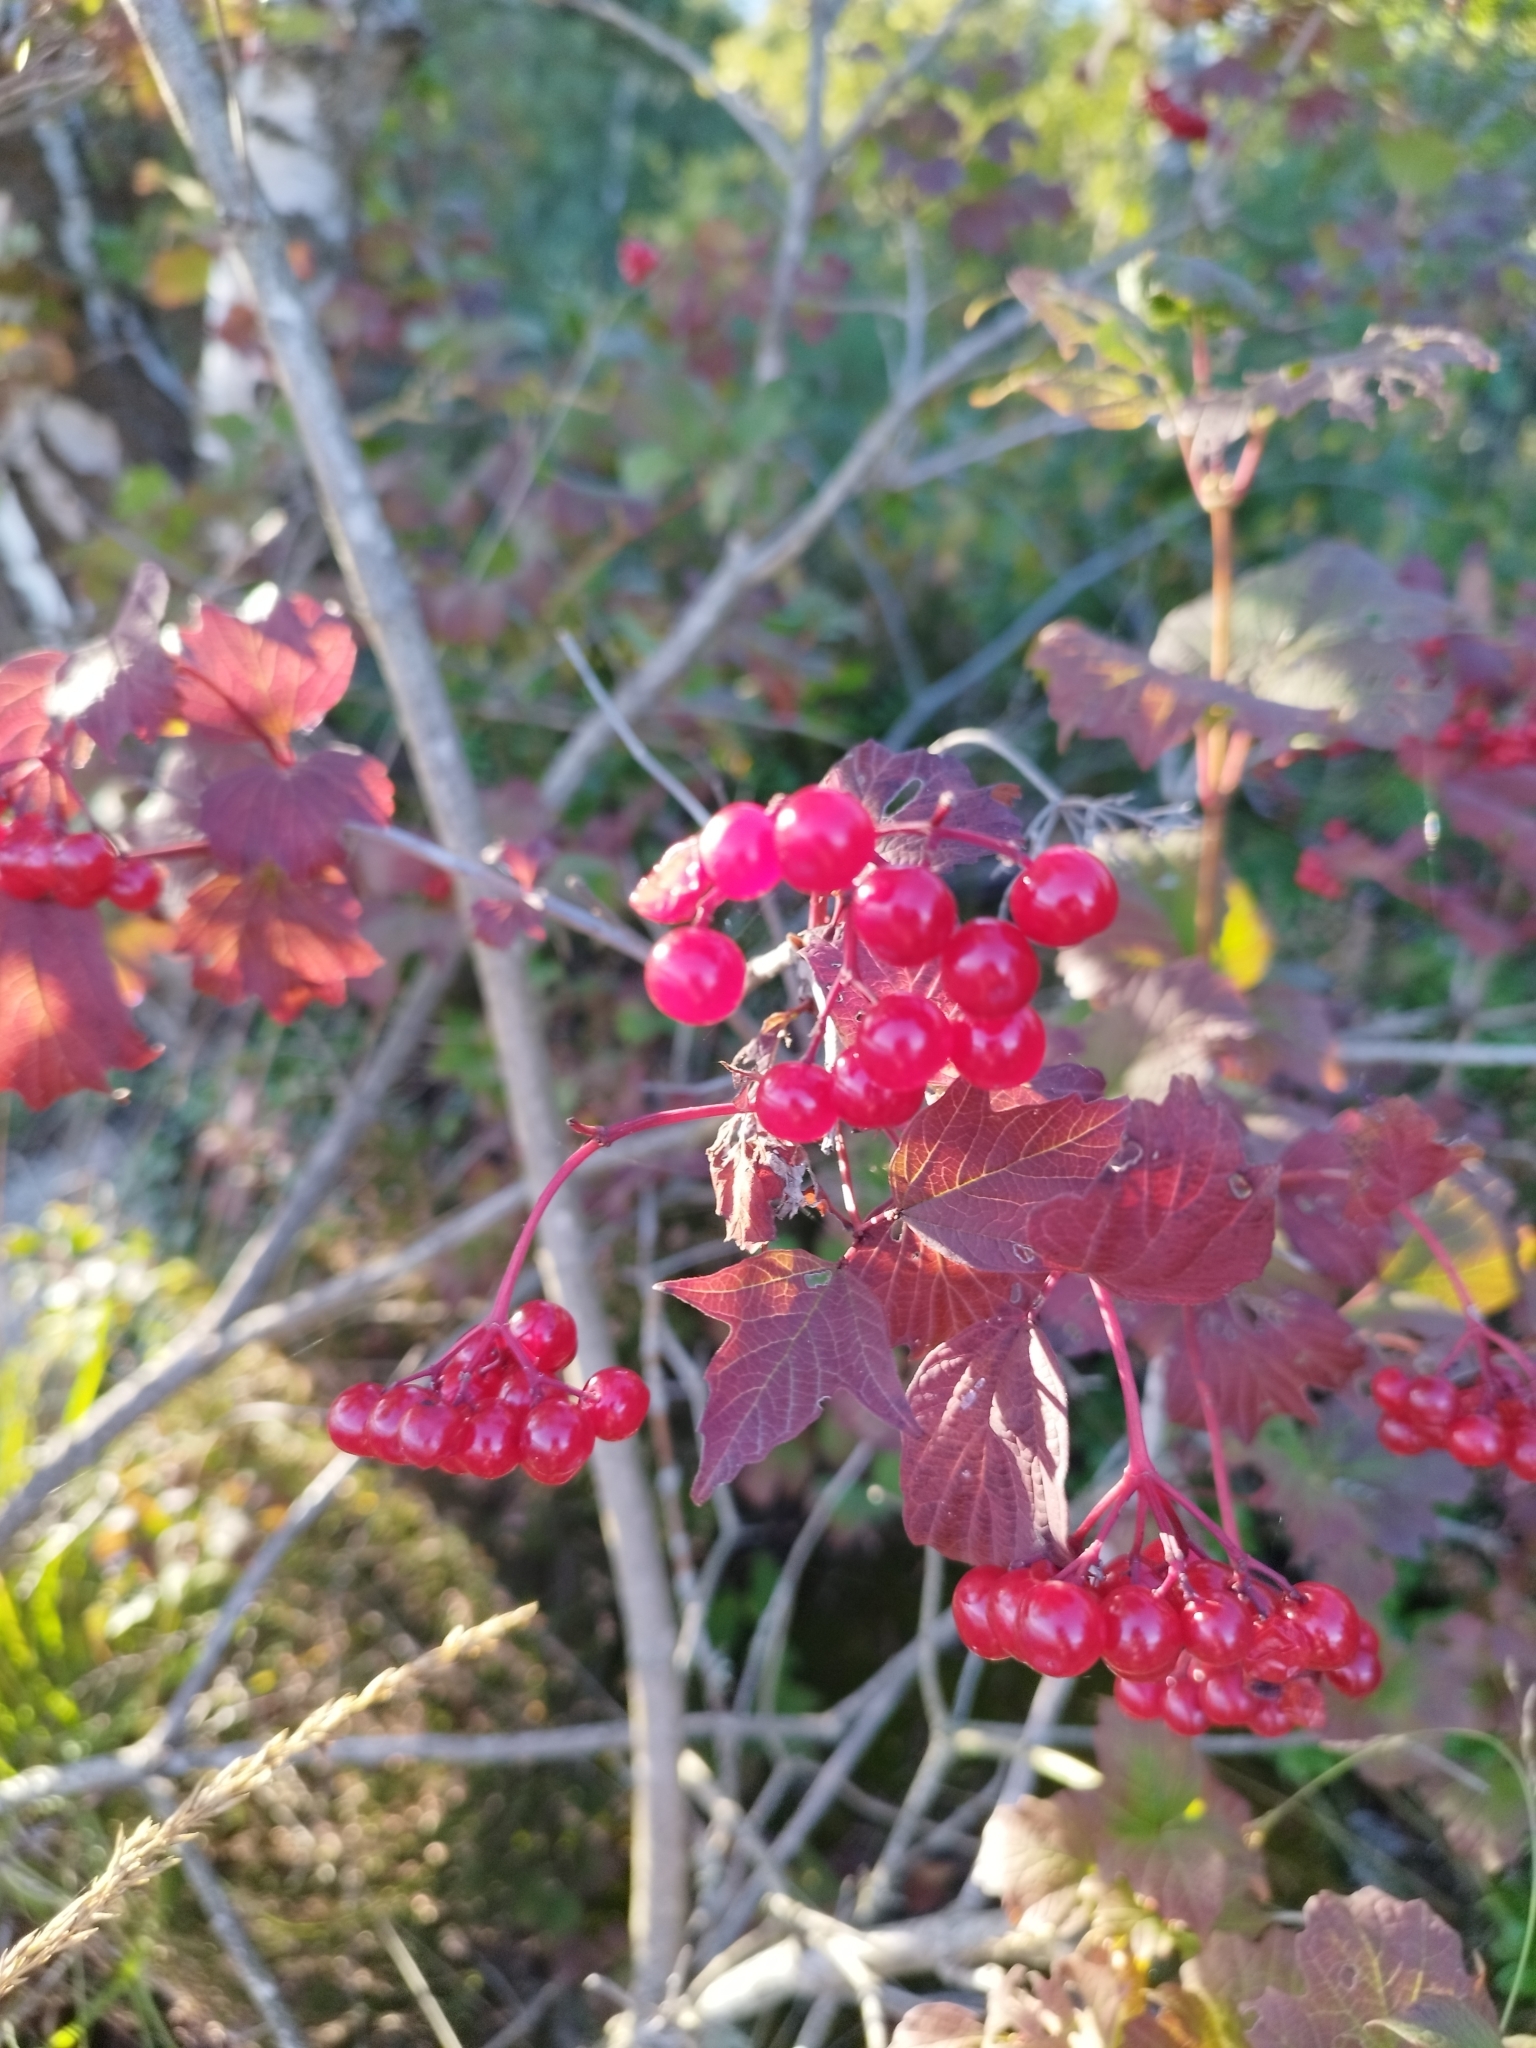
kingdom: Plantae
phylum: Tracheophyta
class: Magnoliopsida
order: Dipsacales
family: Viburnaceae
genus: Viburnum
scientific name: Viburnum opulus
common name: Guelder-rose
